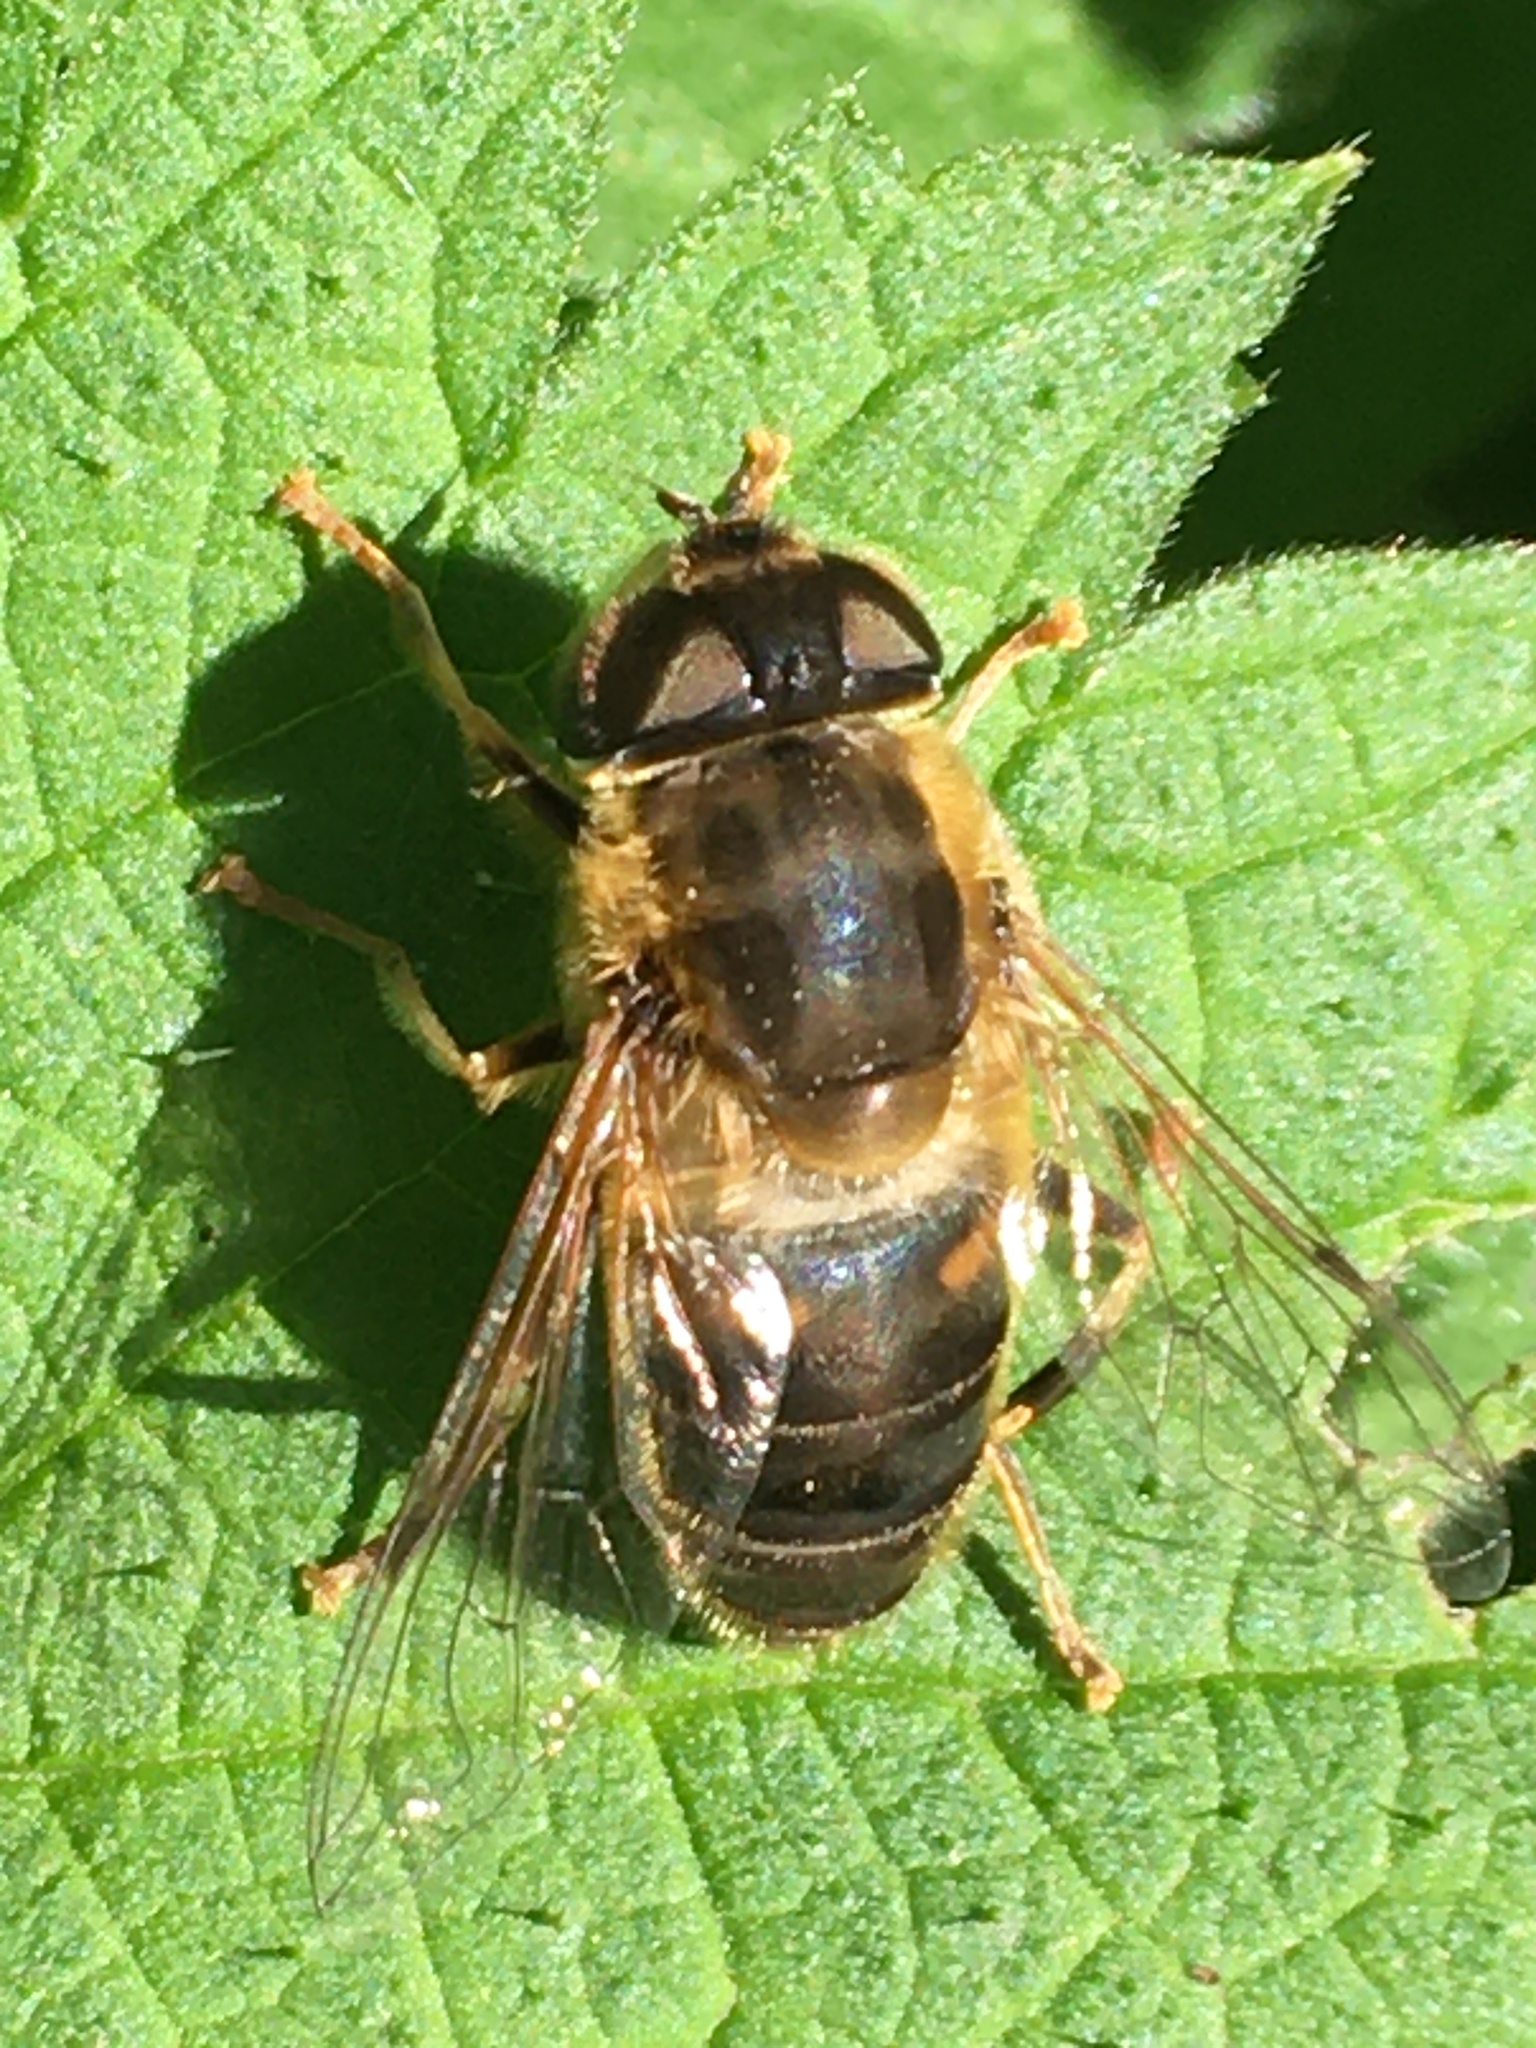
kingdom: Animalia
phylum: Arthropoda
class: Insecta
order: Diptera
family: Syrphidae
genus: Eristalis
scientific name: Eristalis pertinax
